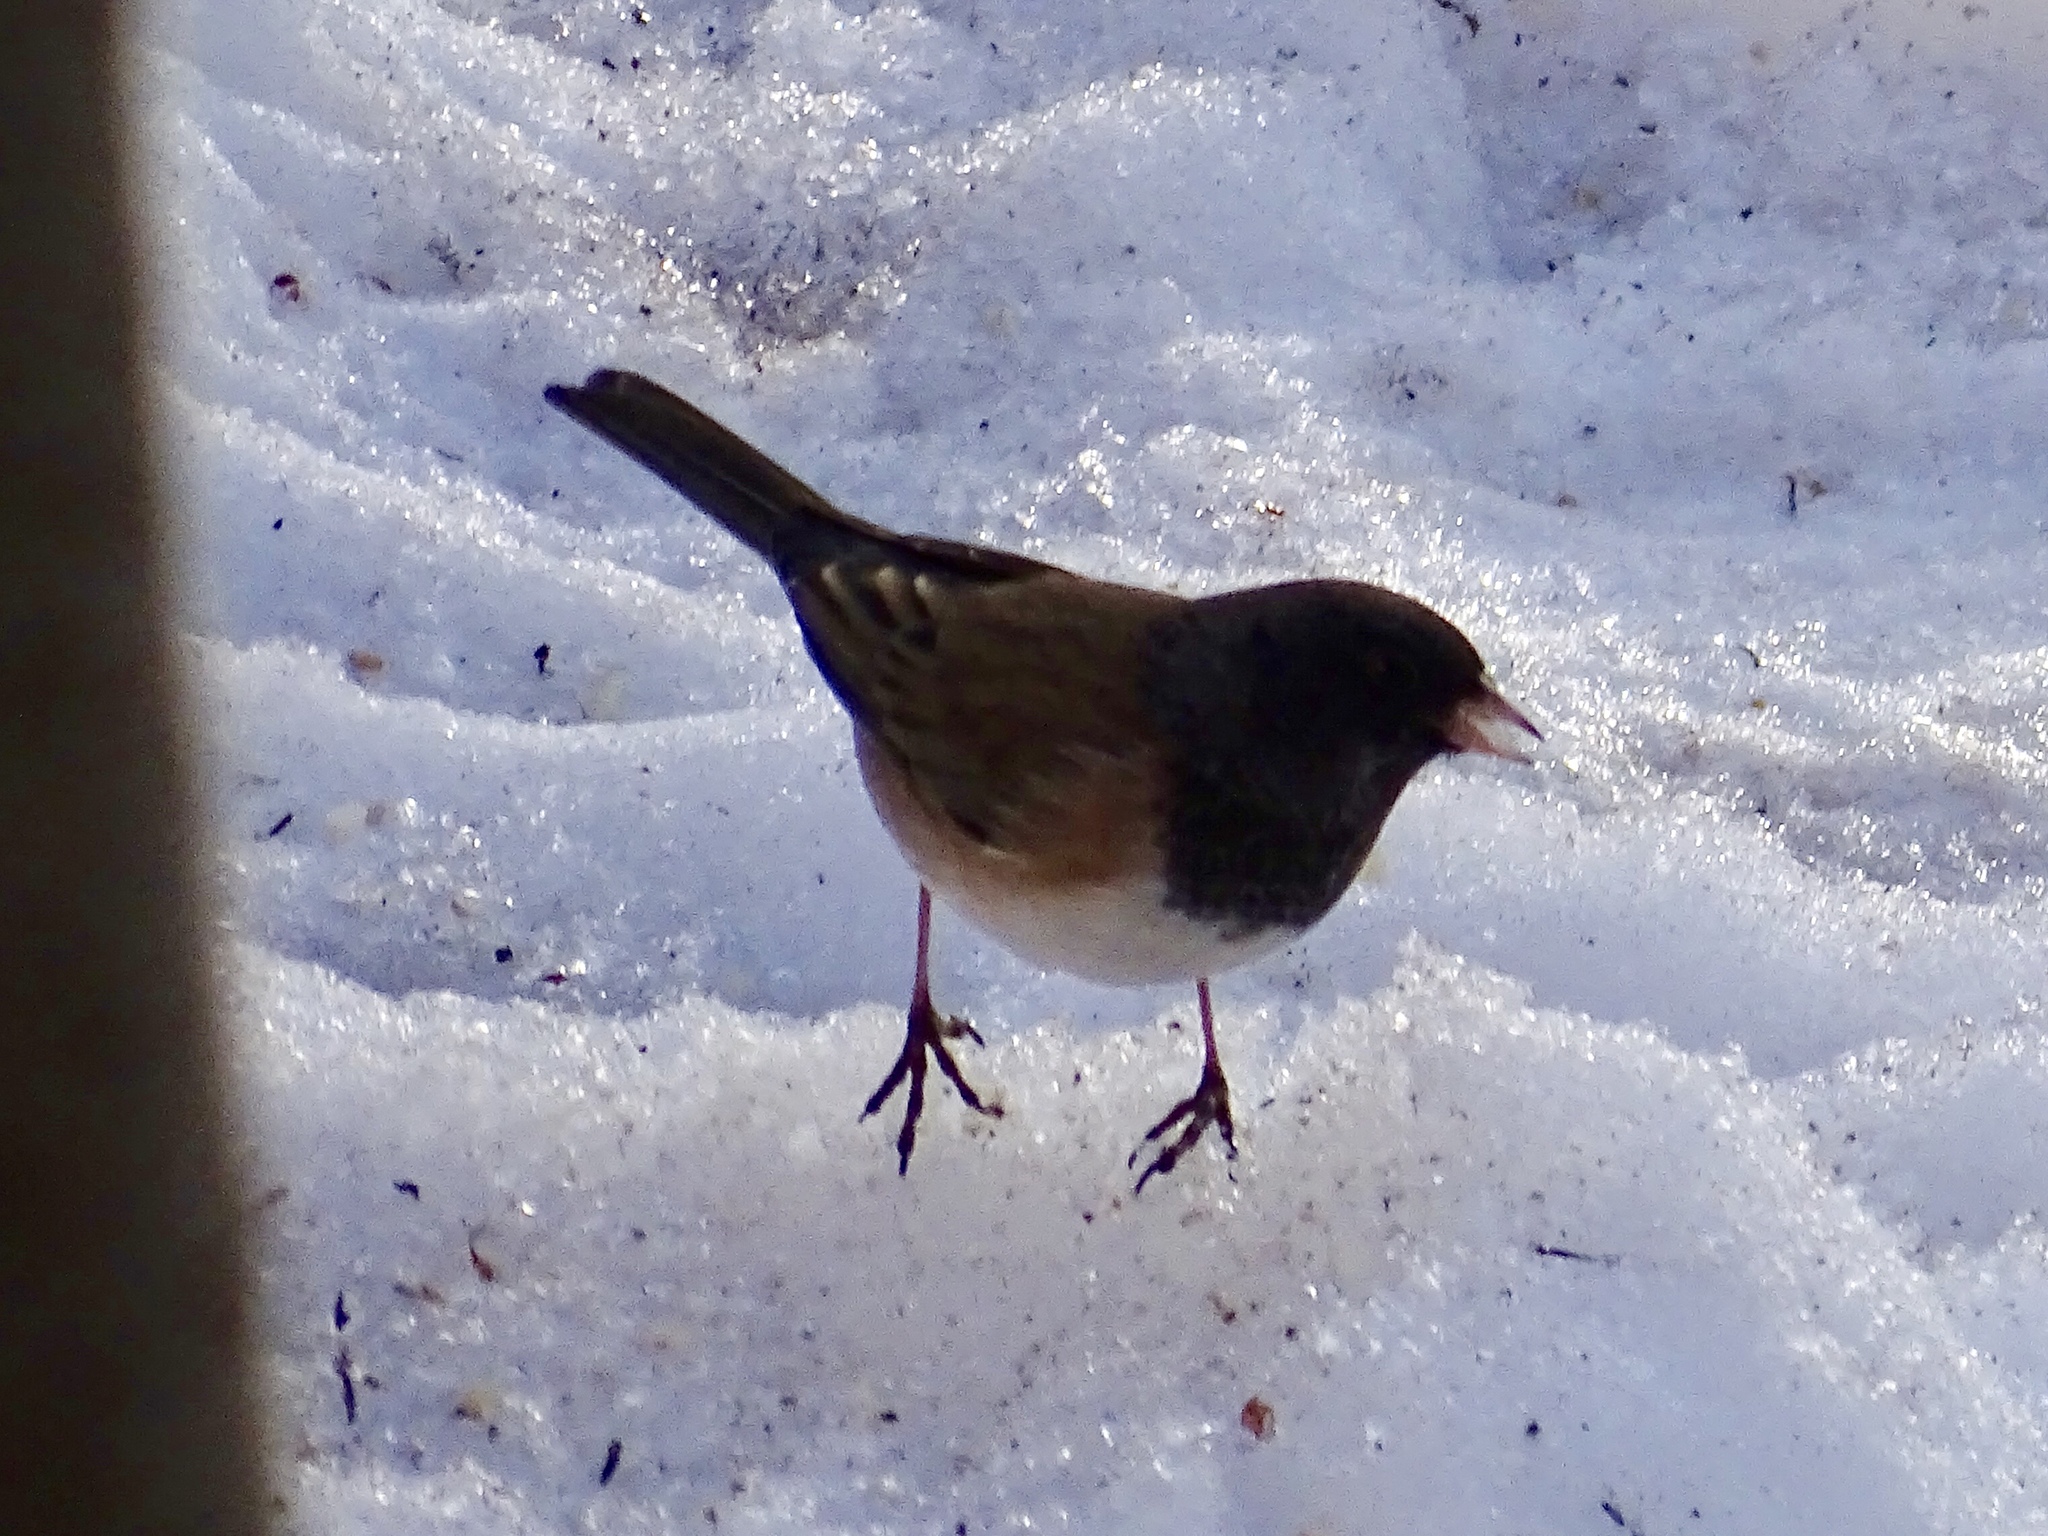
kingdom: Animalia
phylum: Chordata
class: Aves
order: Passeriformes
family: Passerellidae
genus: Junco
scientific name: Junco hyemalis
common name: Dark-eyed junco
